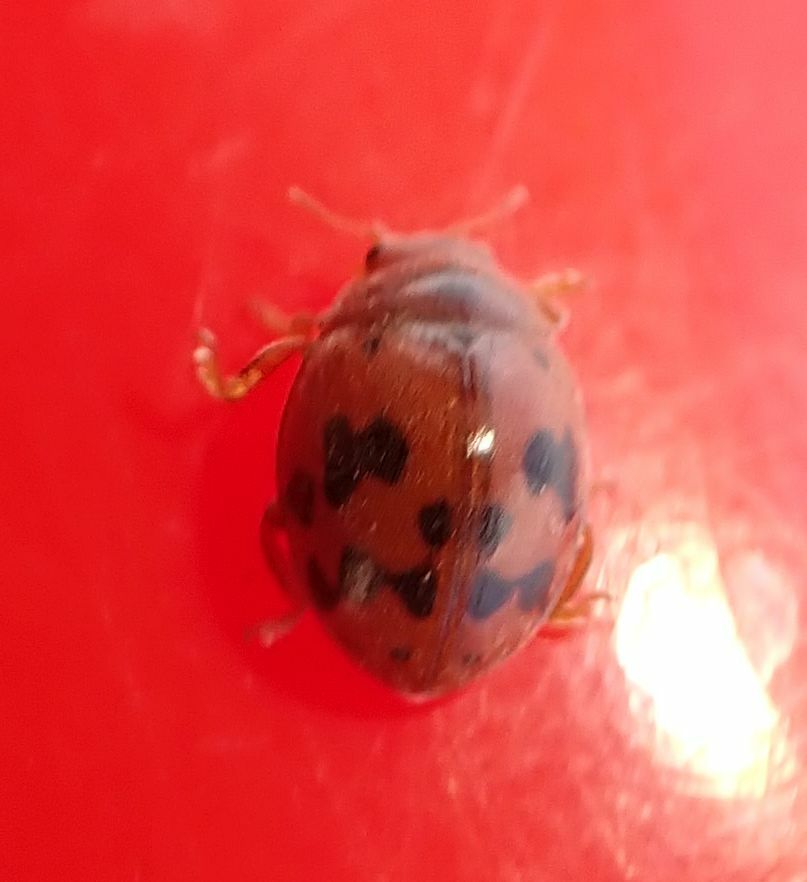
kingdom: Animalia
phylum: Arthropoda
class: Insecta
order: Coleoptera
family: Coccinellidae
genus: Subcoccinella
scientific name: Subcoccinella vigintiquatuorpunctata
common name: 24-spot ladybird
